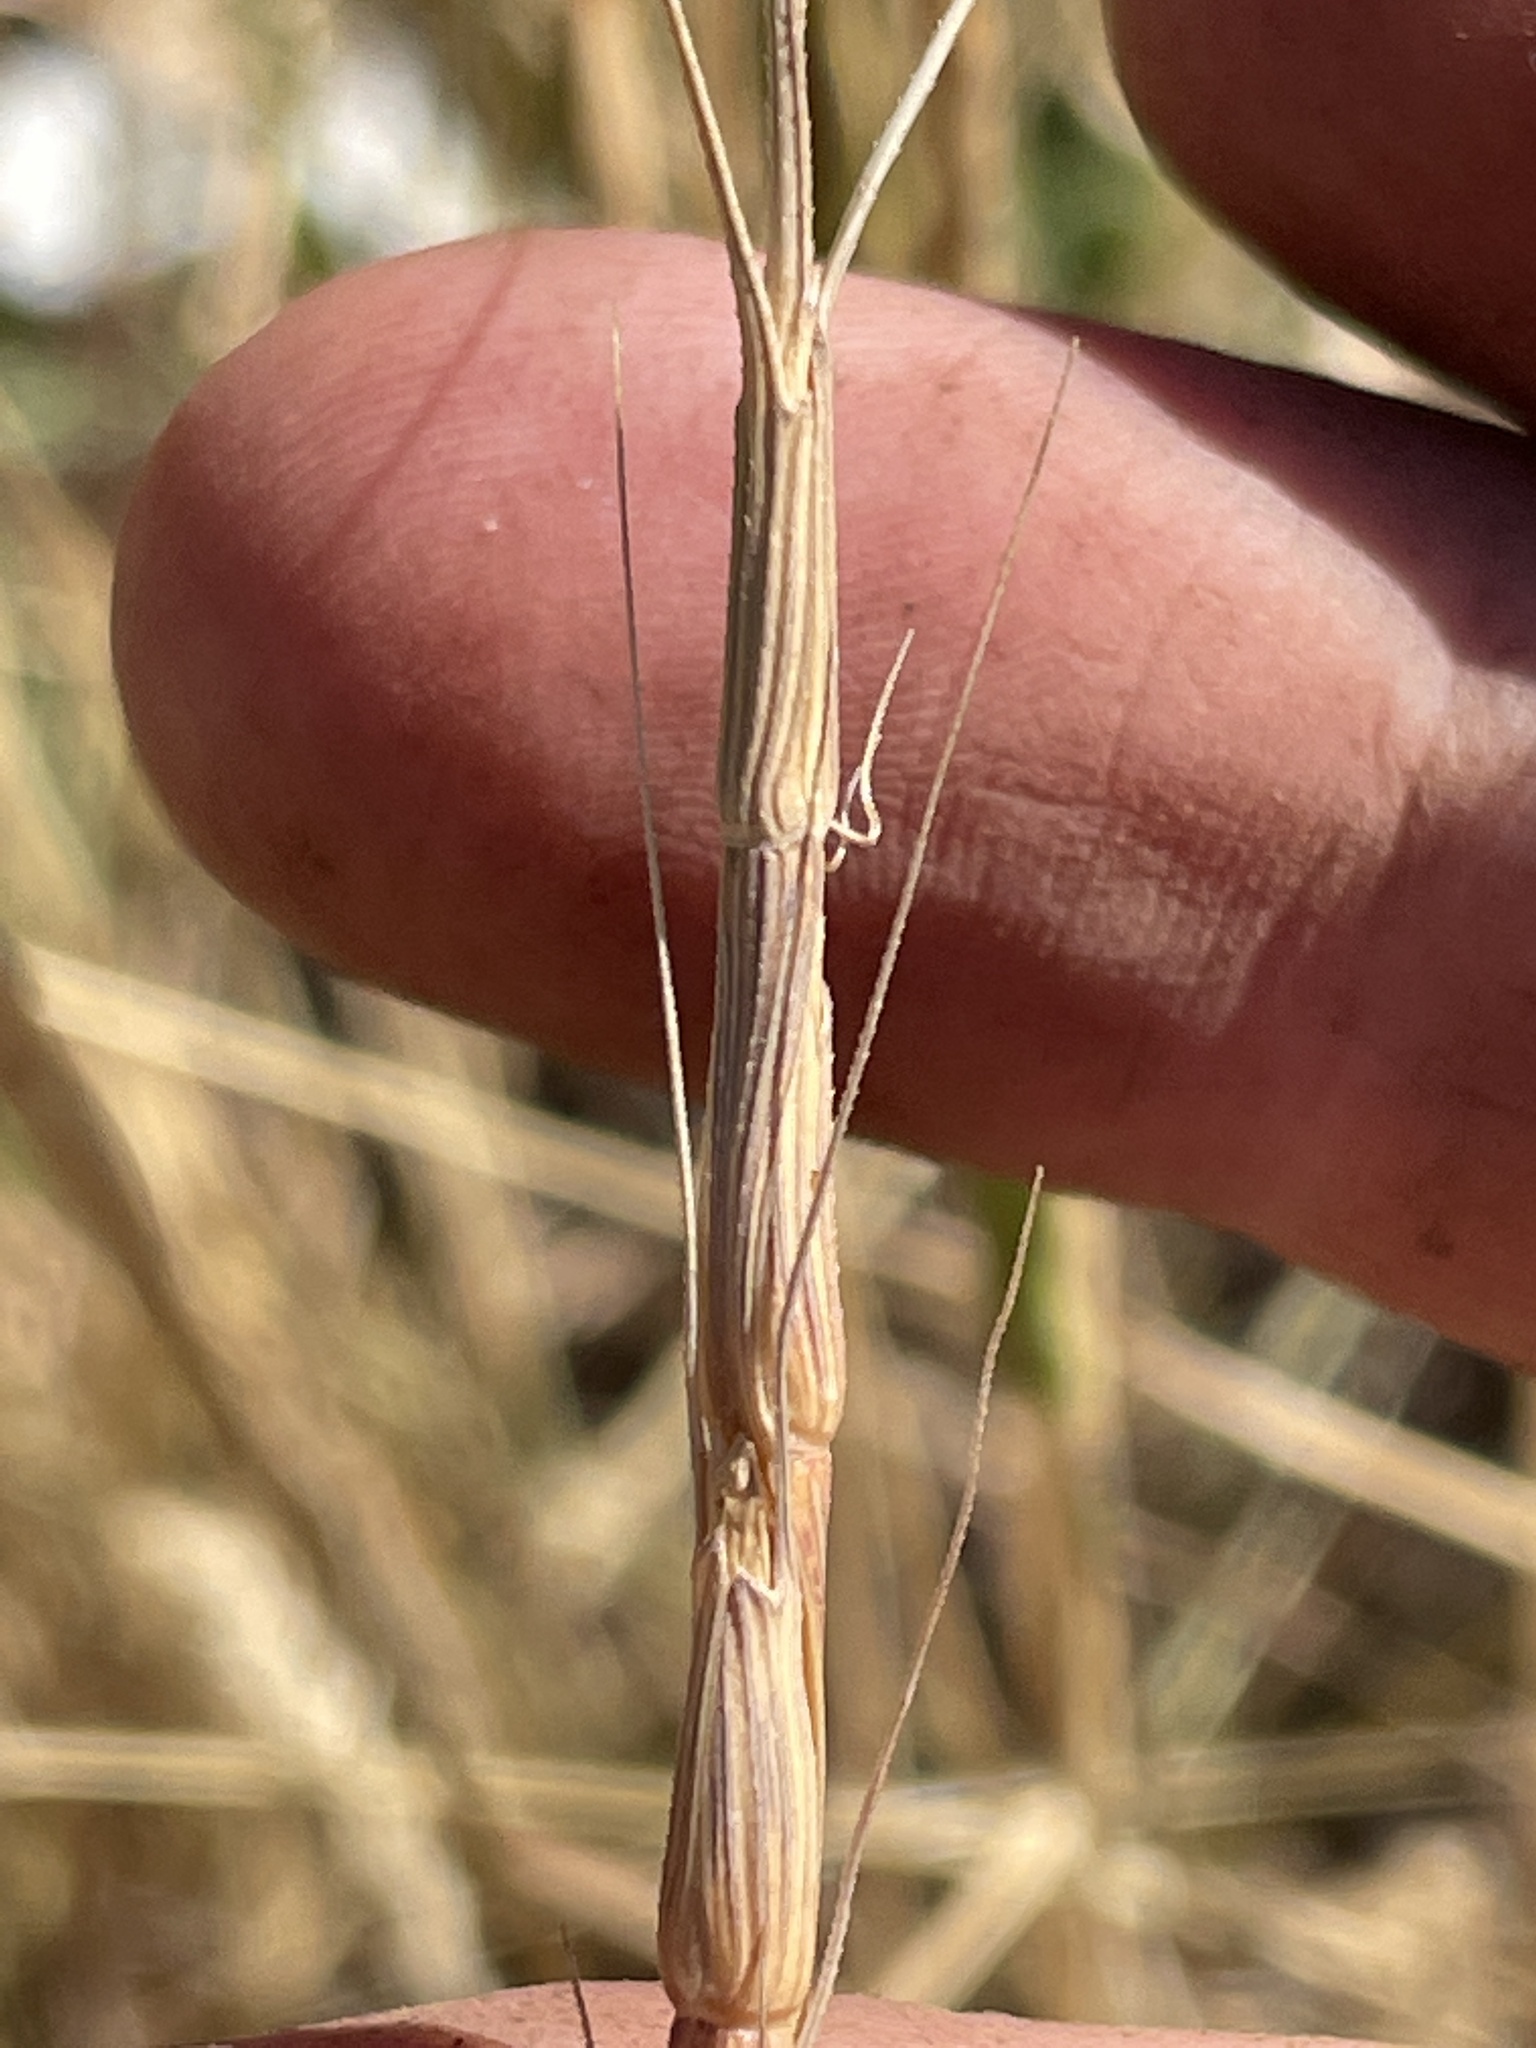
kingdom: Plantae
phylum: Tracheophyta
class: Liliopsida
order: Poales
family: Poaceae
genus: Aegilops
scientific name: Aegilops cylindrica
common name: Jointed goatgrass
